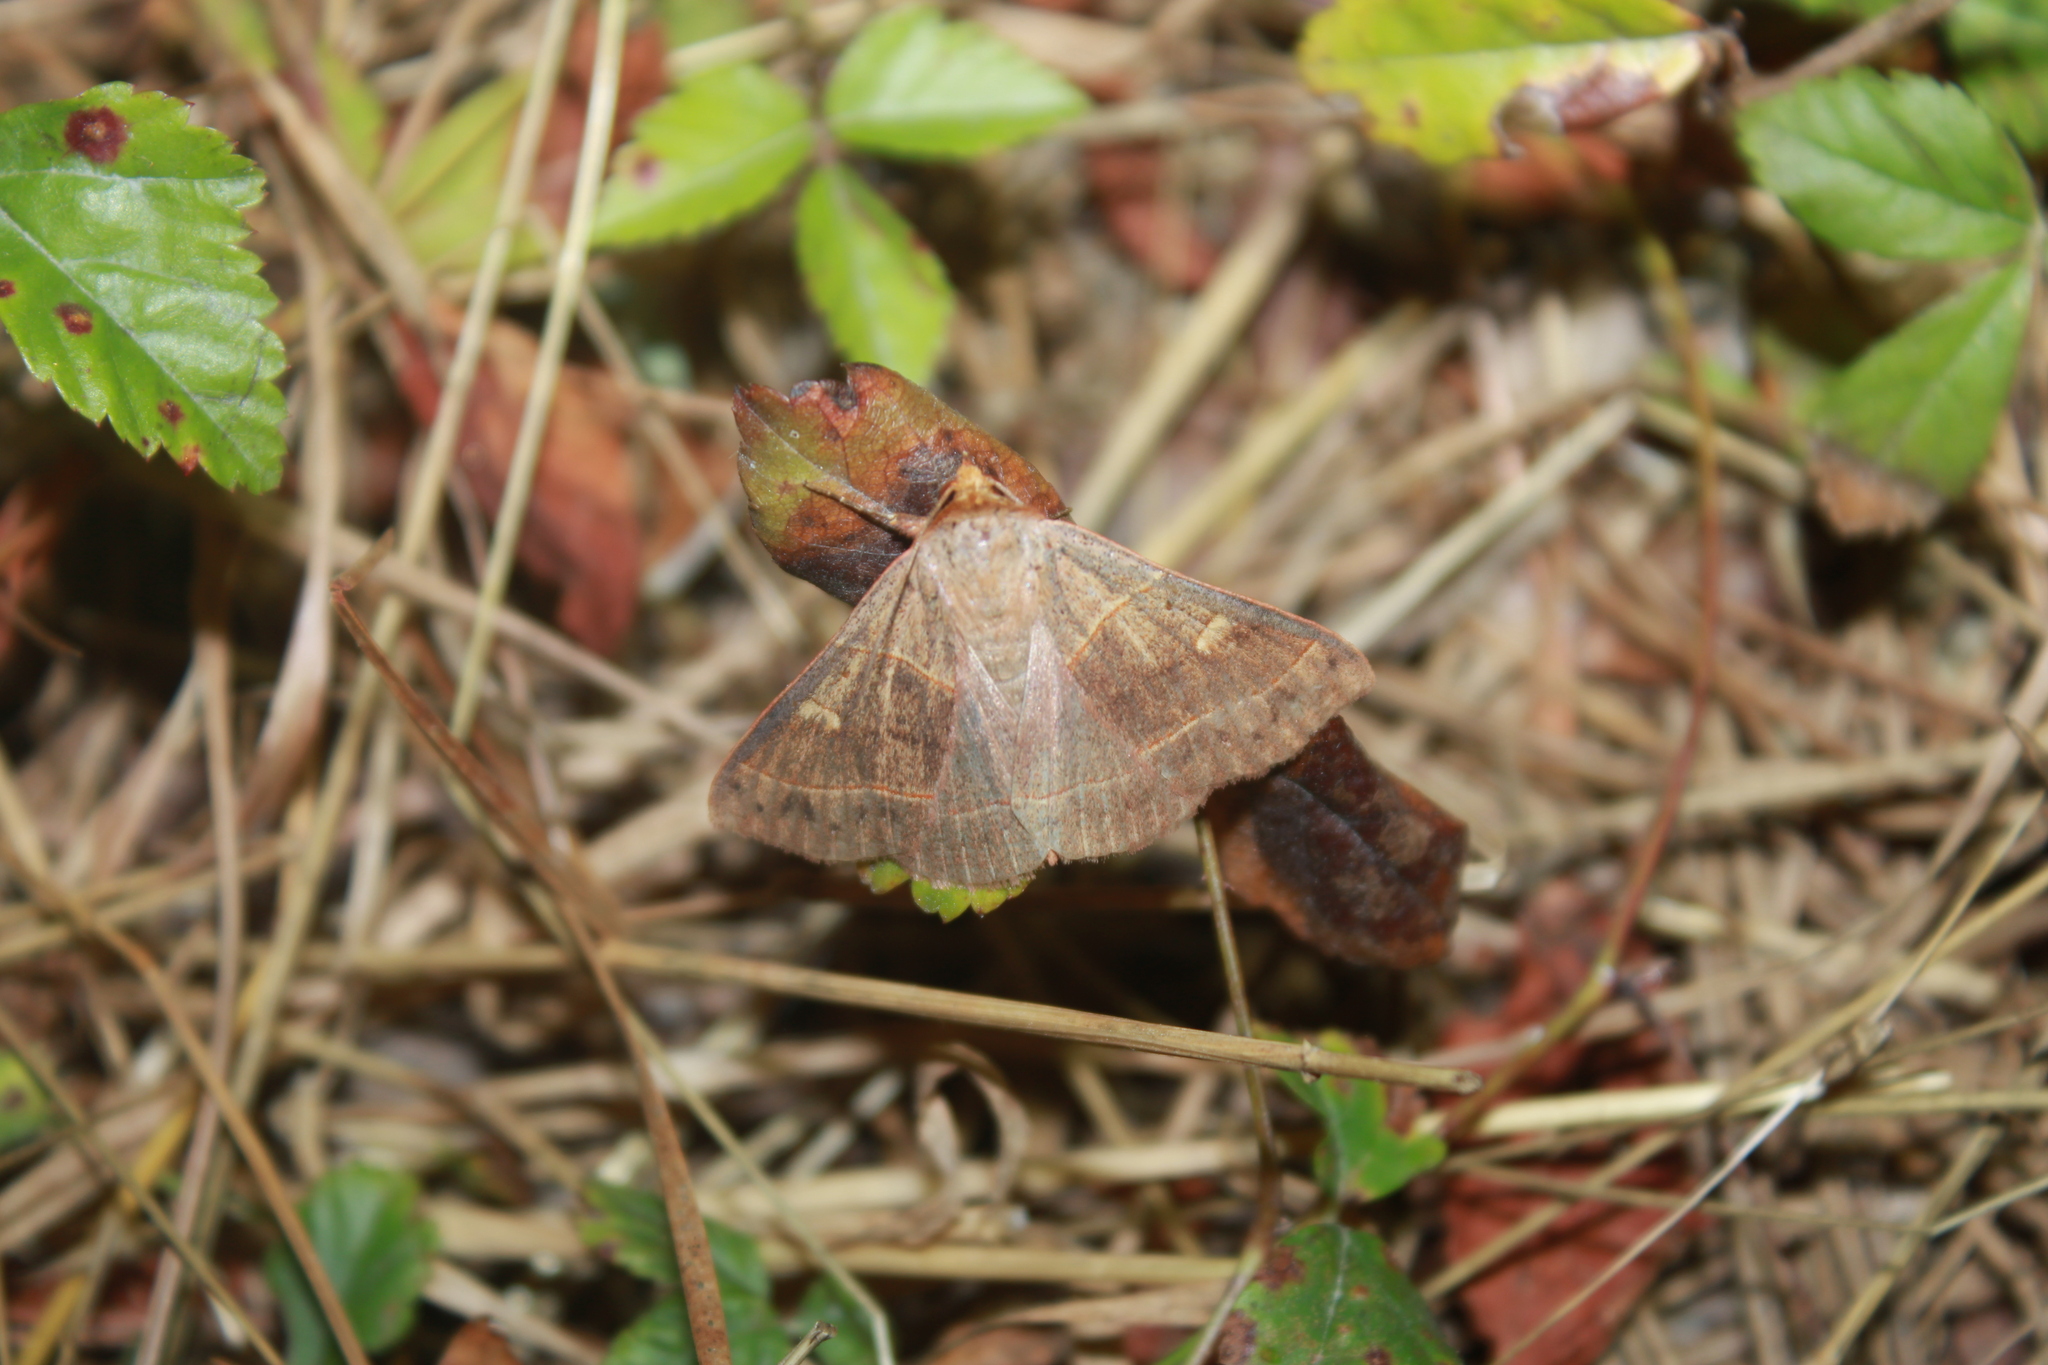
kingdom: Animalia
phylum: Arthropoda
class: Insecta
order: Lepidoptera
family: Erebidae
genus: Panopoda
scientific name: Panopoda rufimargo
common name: Red-lined panopoda moth
